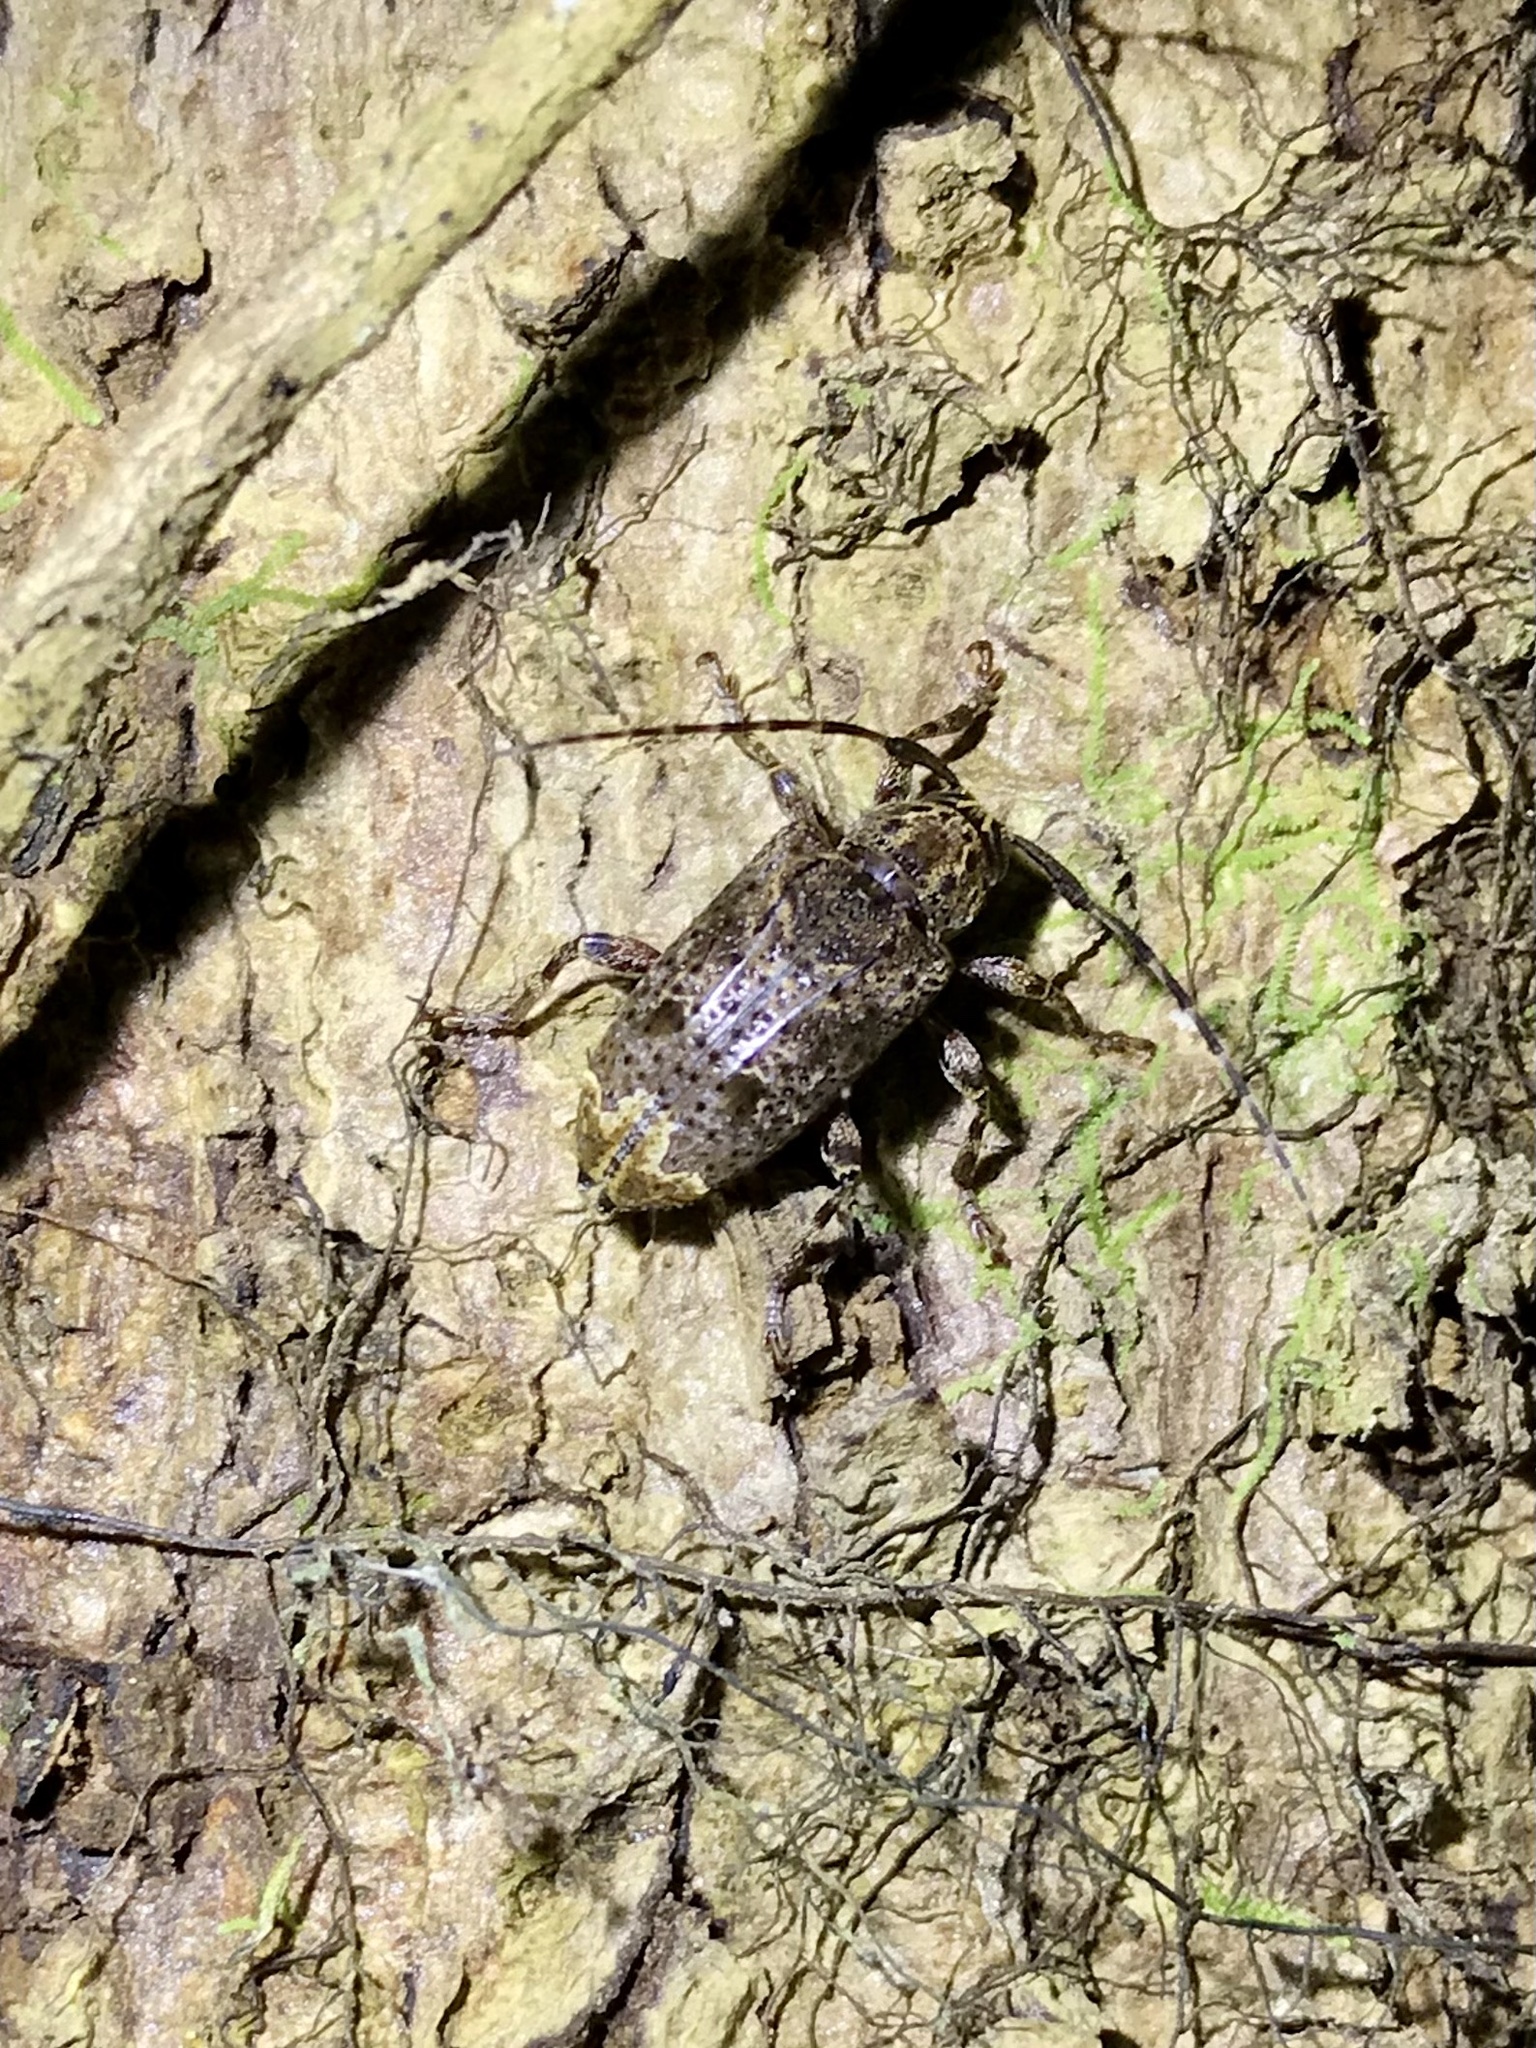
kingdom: Animalia
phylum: Arthropoda
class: Insecta
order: Coleoptera
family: Cerambycidae
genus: Trypanidius
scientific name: Trypanidius mexicanus
